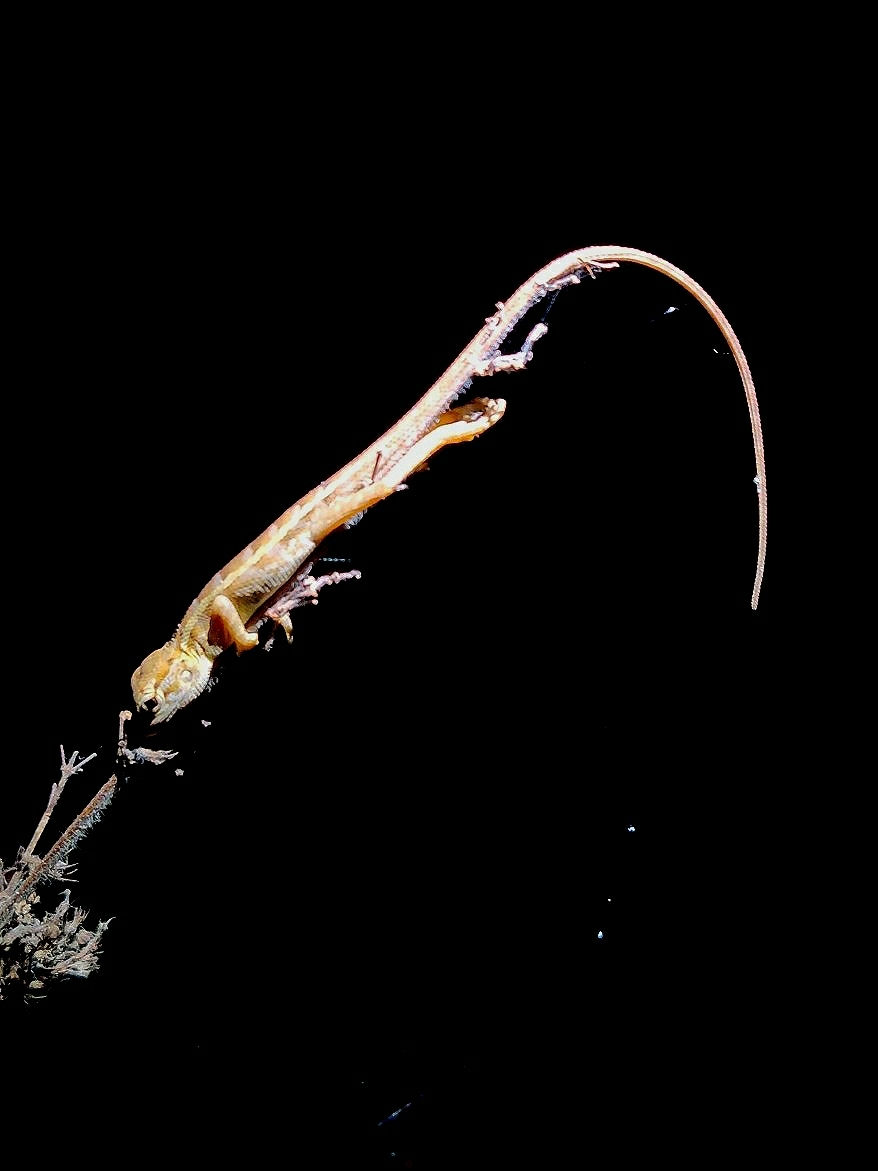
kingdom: Animalia
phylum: Chordata
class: Squamata
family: Agamidae
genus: Calotes
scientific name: Calotes versicolor
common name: Oriental garden lizard
